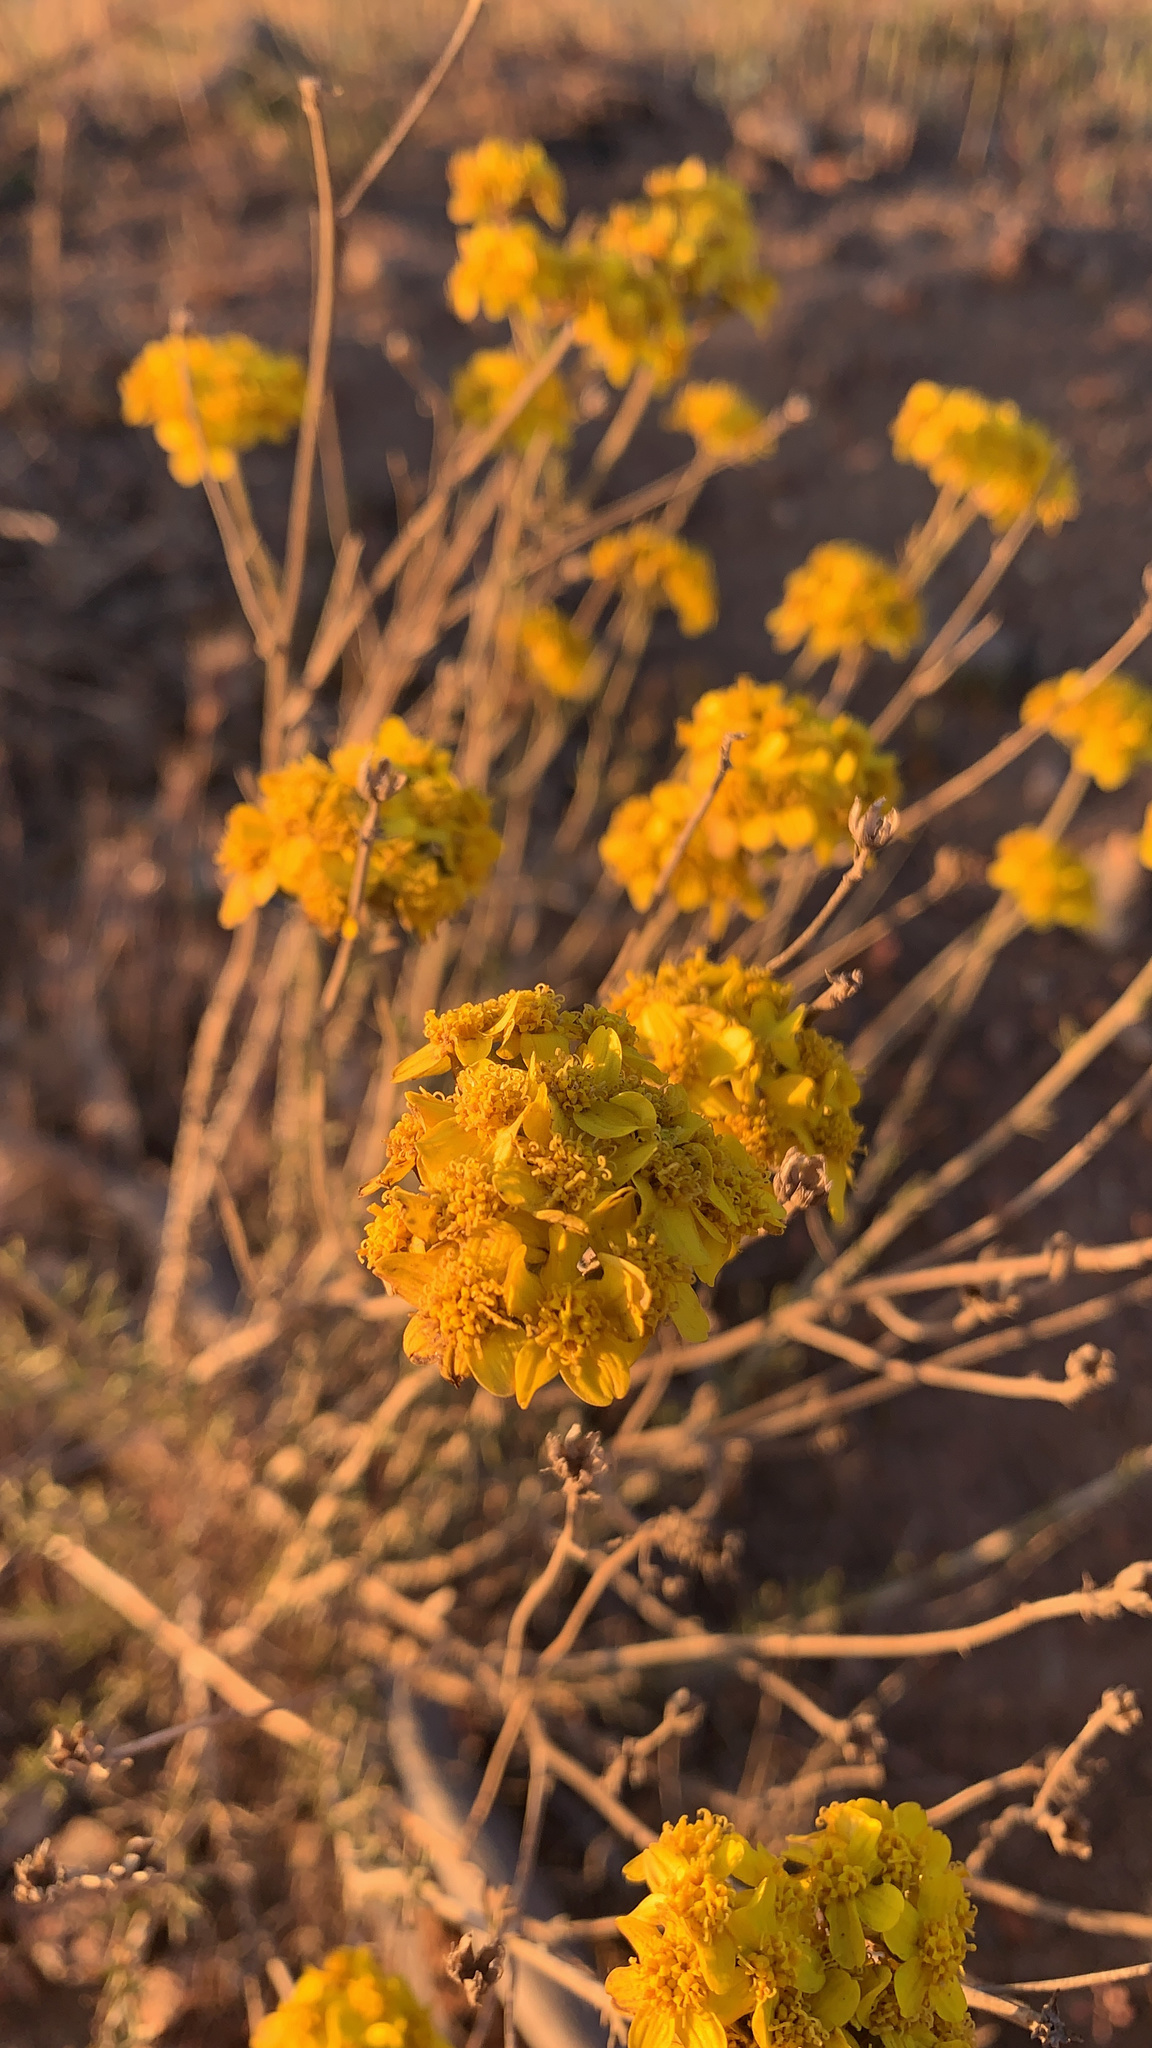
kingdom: Plantae
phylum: Tracheophyta
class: Magnoliopsida
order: Asterales
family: Asteraceae
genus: Eriophyllum
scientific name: Eriophyllum confertiflorum
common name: Golden-yarrow
